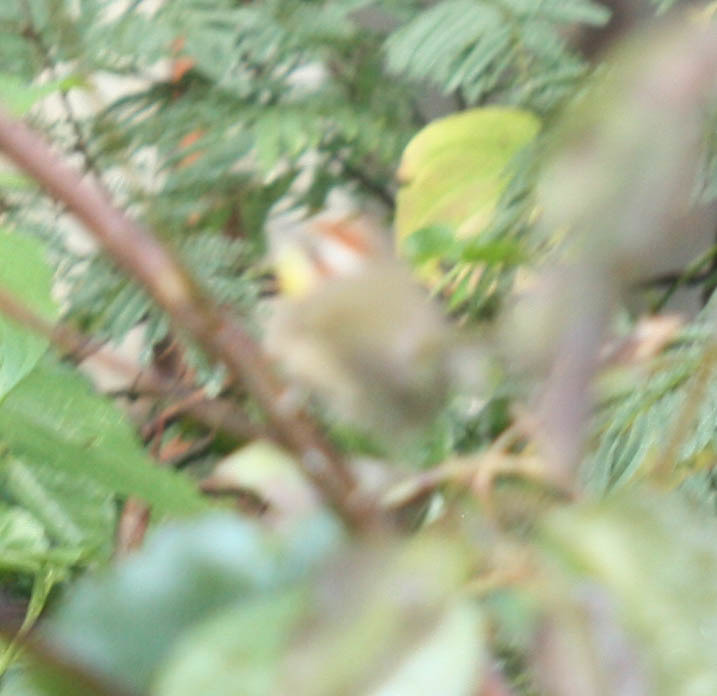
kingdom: Animalia
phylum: Chordata
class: Aves
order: Passeriformes
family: Parulidae
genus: Basileuterus
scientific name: Basileuterus rufifrons
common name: Rufous-capped warbler
